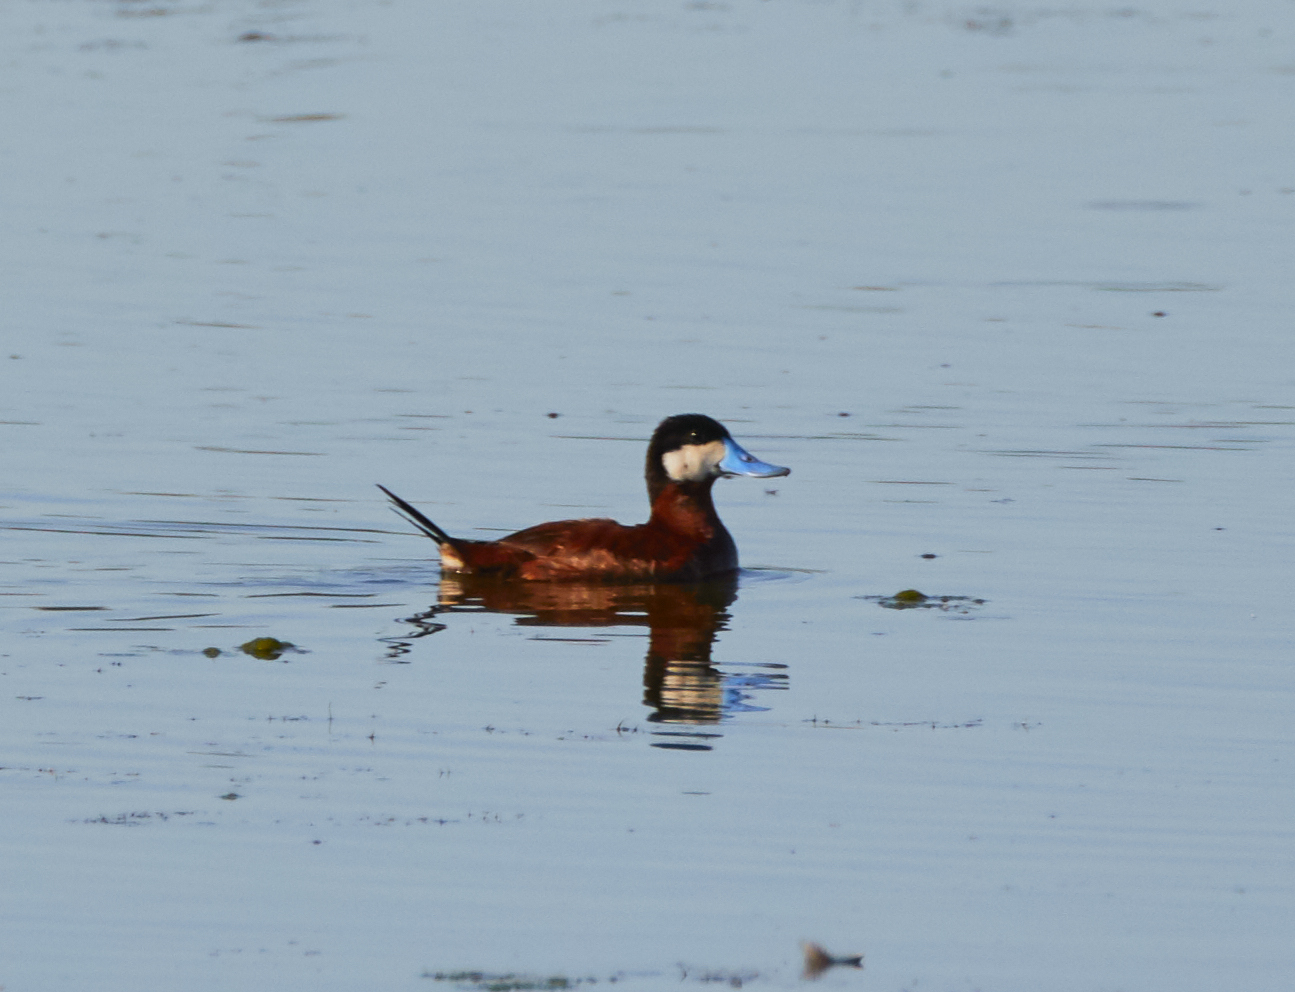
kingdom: Animalia
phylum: Chordata
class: Aves
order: Anseriformes
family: Anatidae
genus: Oxyura
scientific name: Oxyura jamaicensis
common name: Ruddy duck
